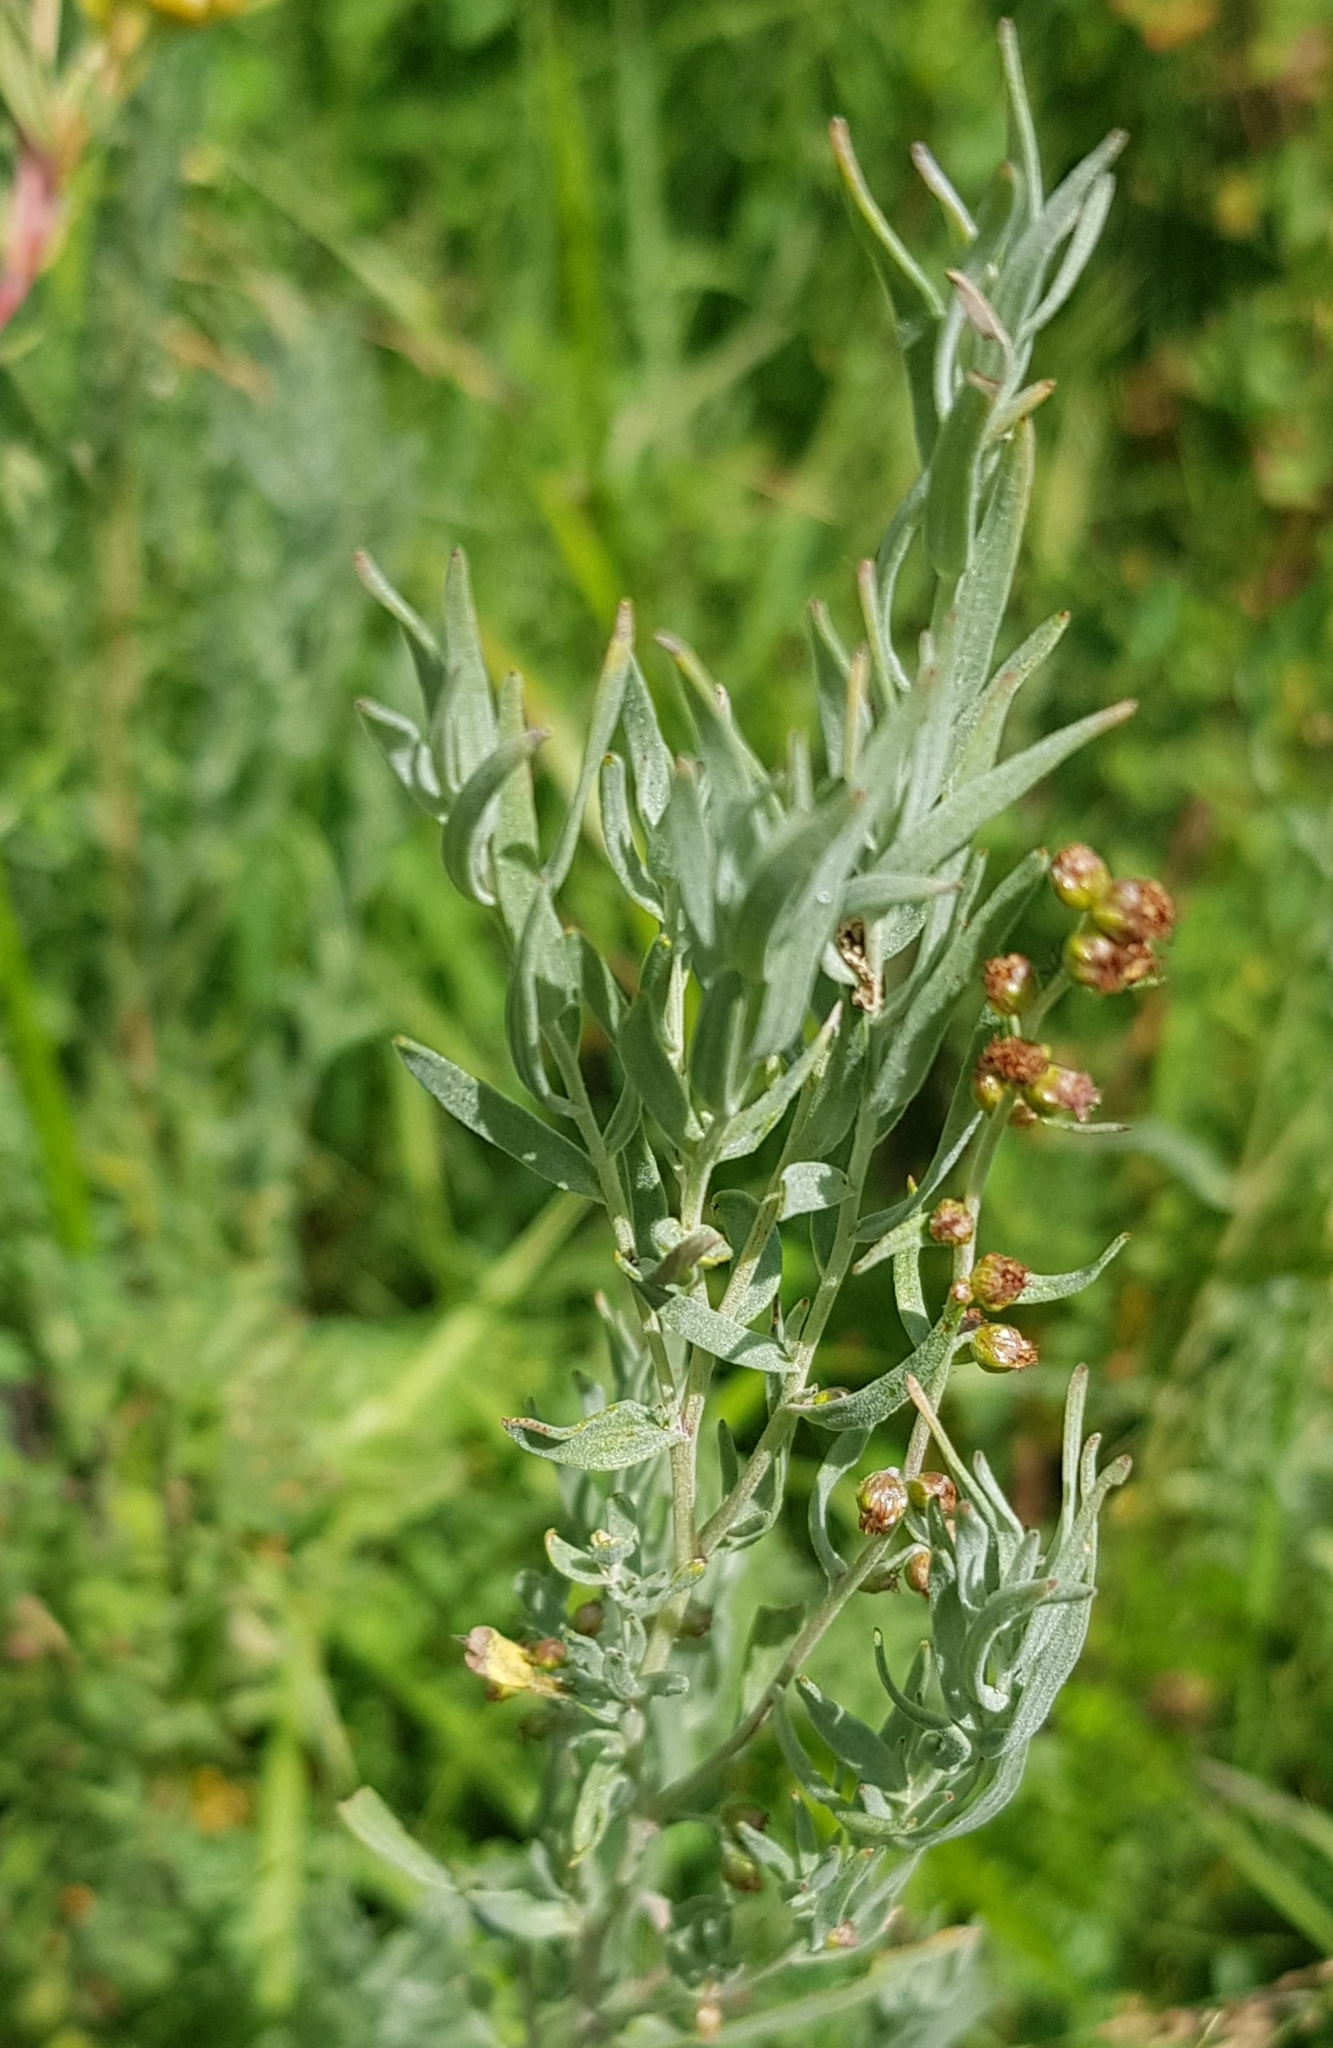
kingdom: Plantae
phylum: Tracheophyta
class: Magnoliopsida
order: Asterales
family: Asteraceae
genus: Artemisia
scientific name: Artemisia glauca
